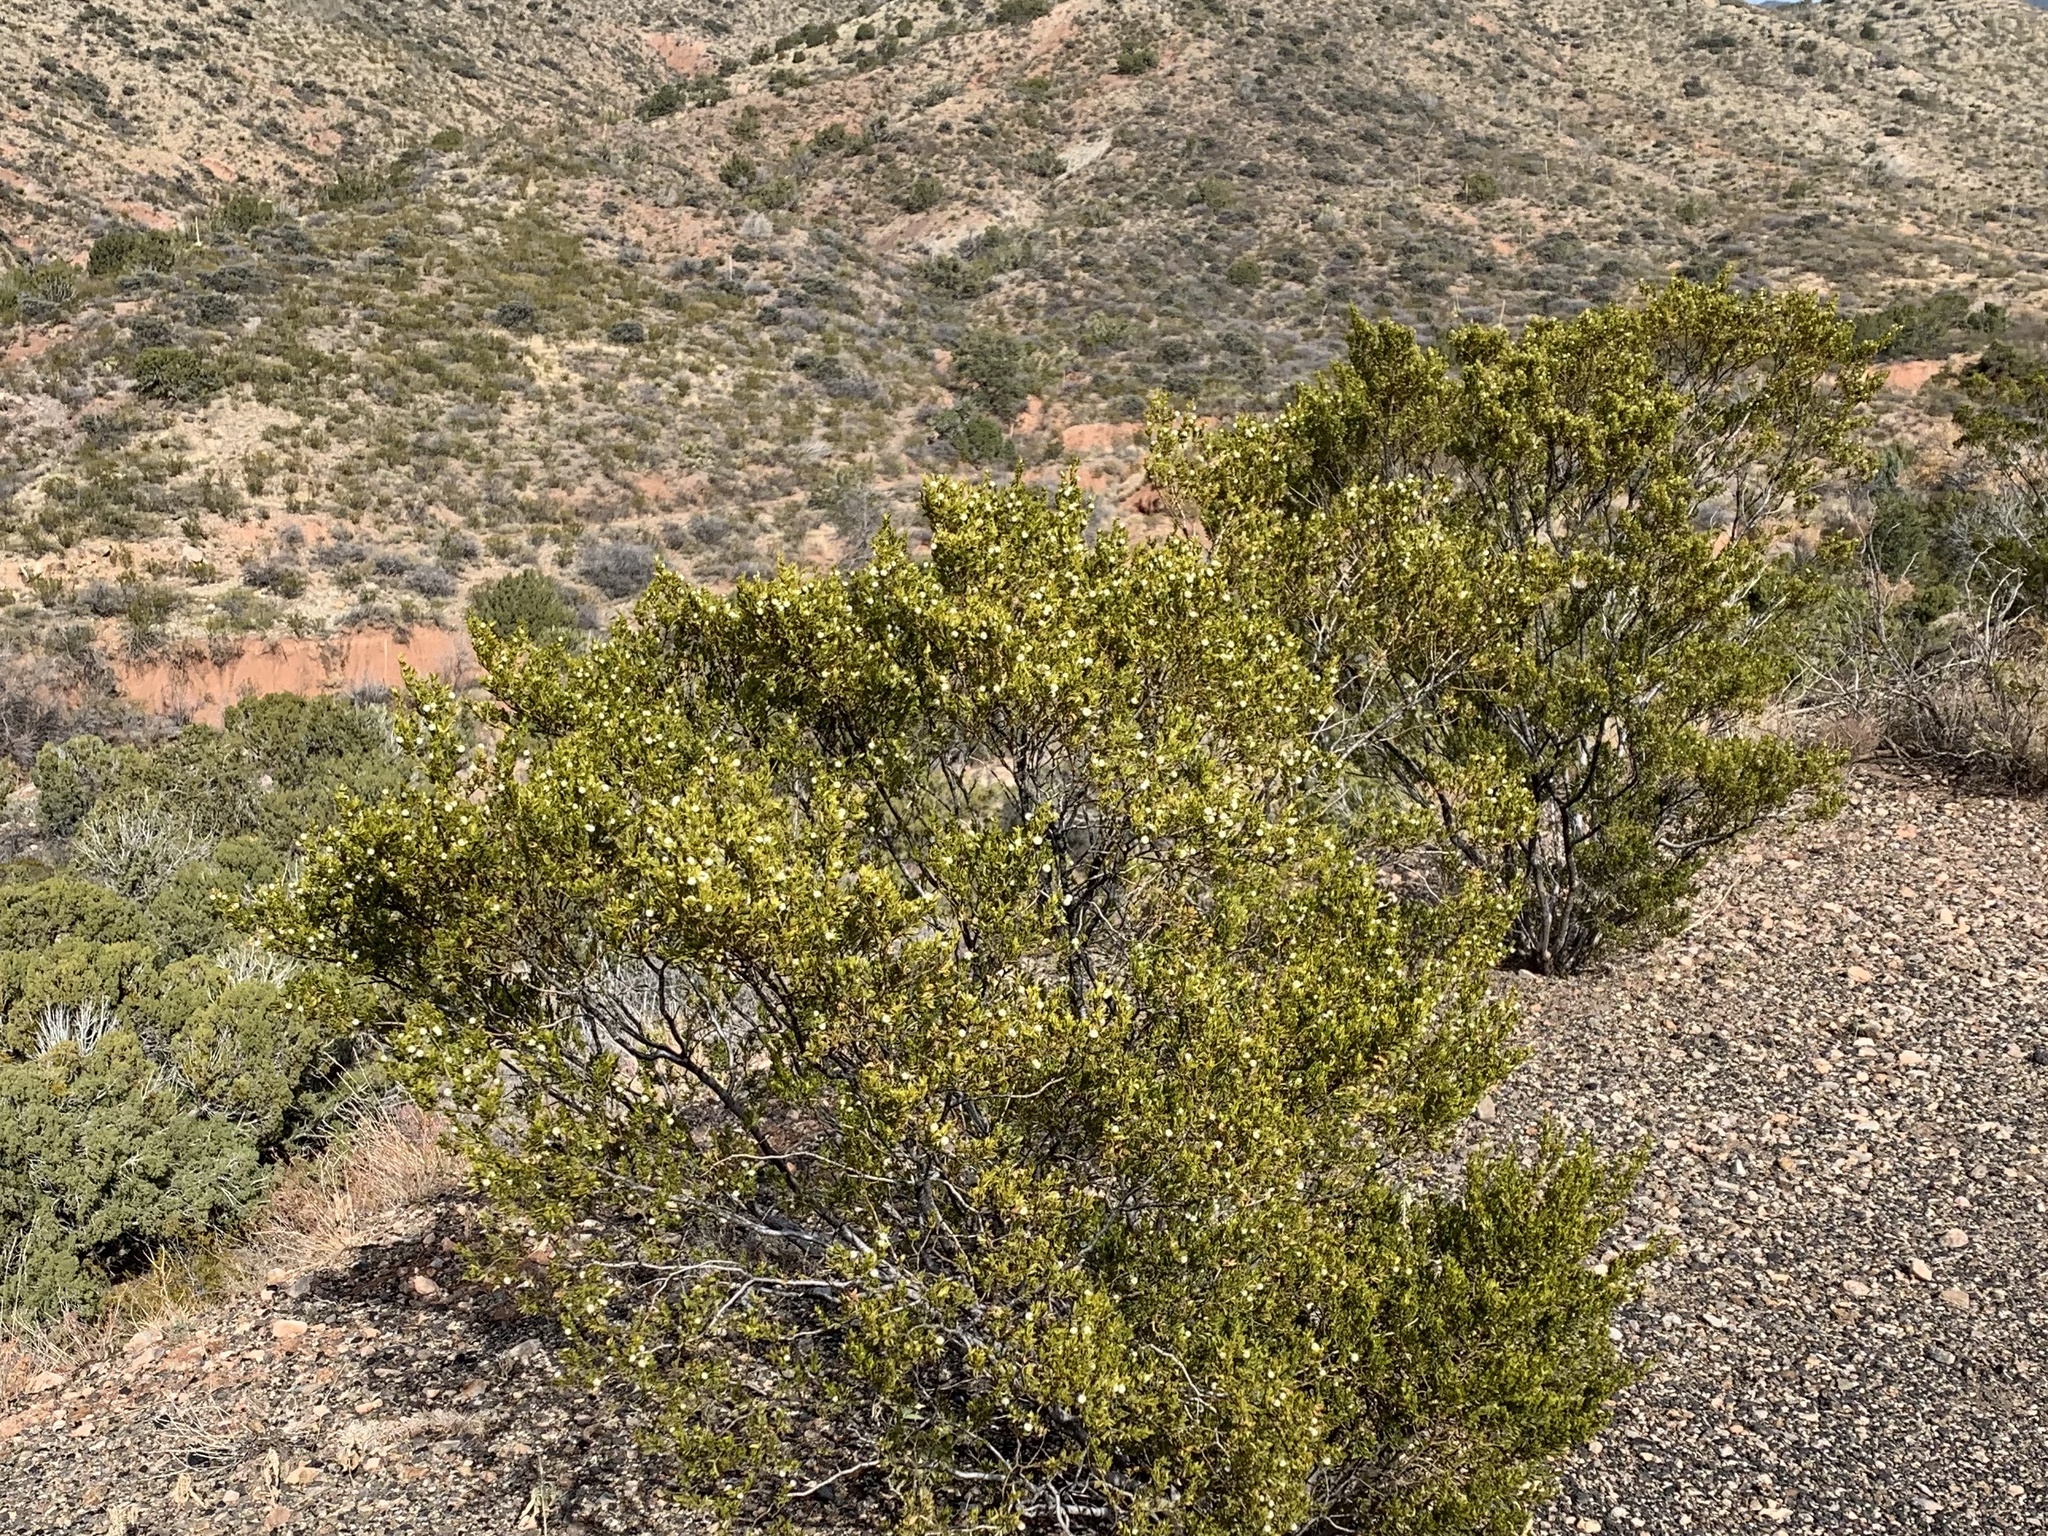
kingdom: Plantae
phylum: Tracheophyta
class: Magnoliopsida
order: Zygophyllales
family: Zygophyllaceae
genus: Larrea
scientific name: Larrea tridentata
